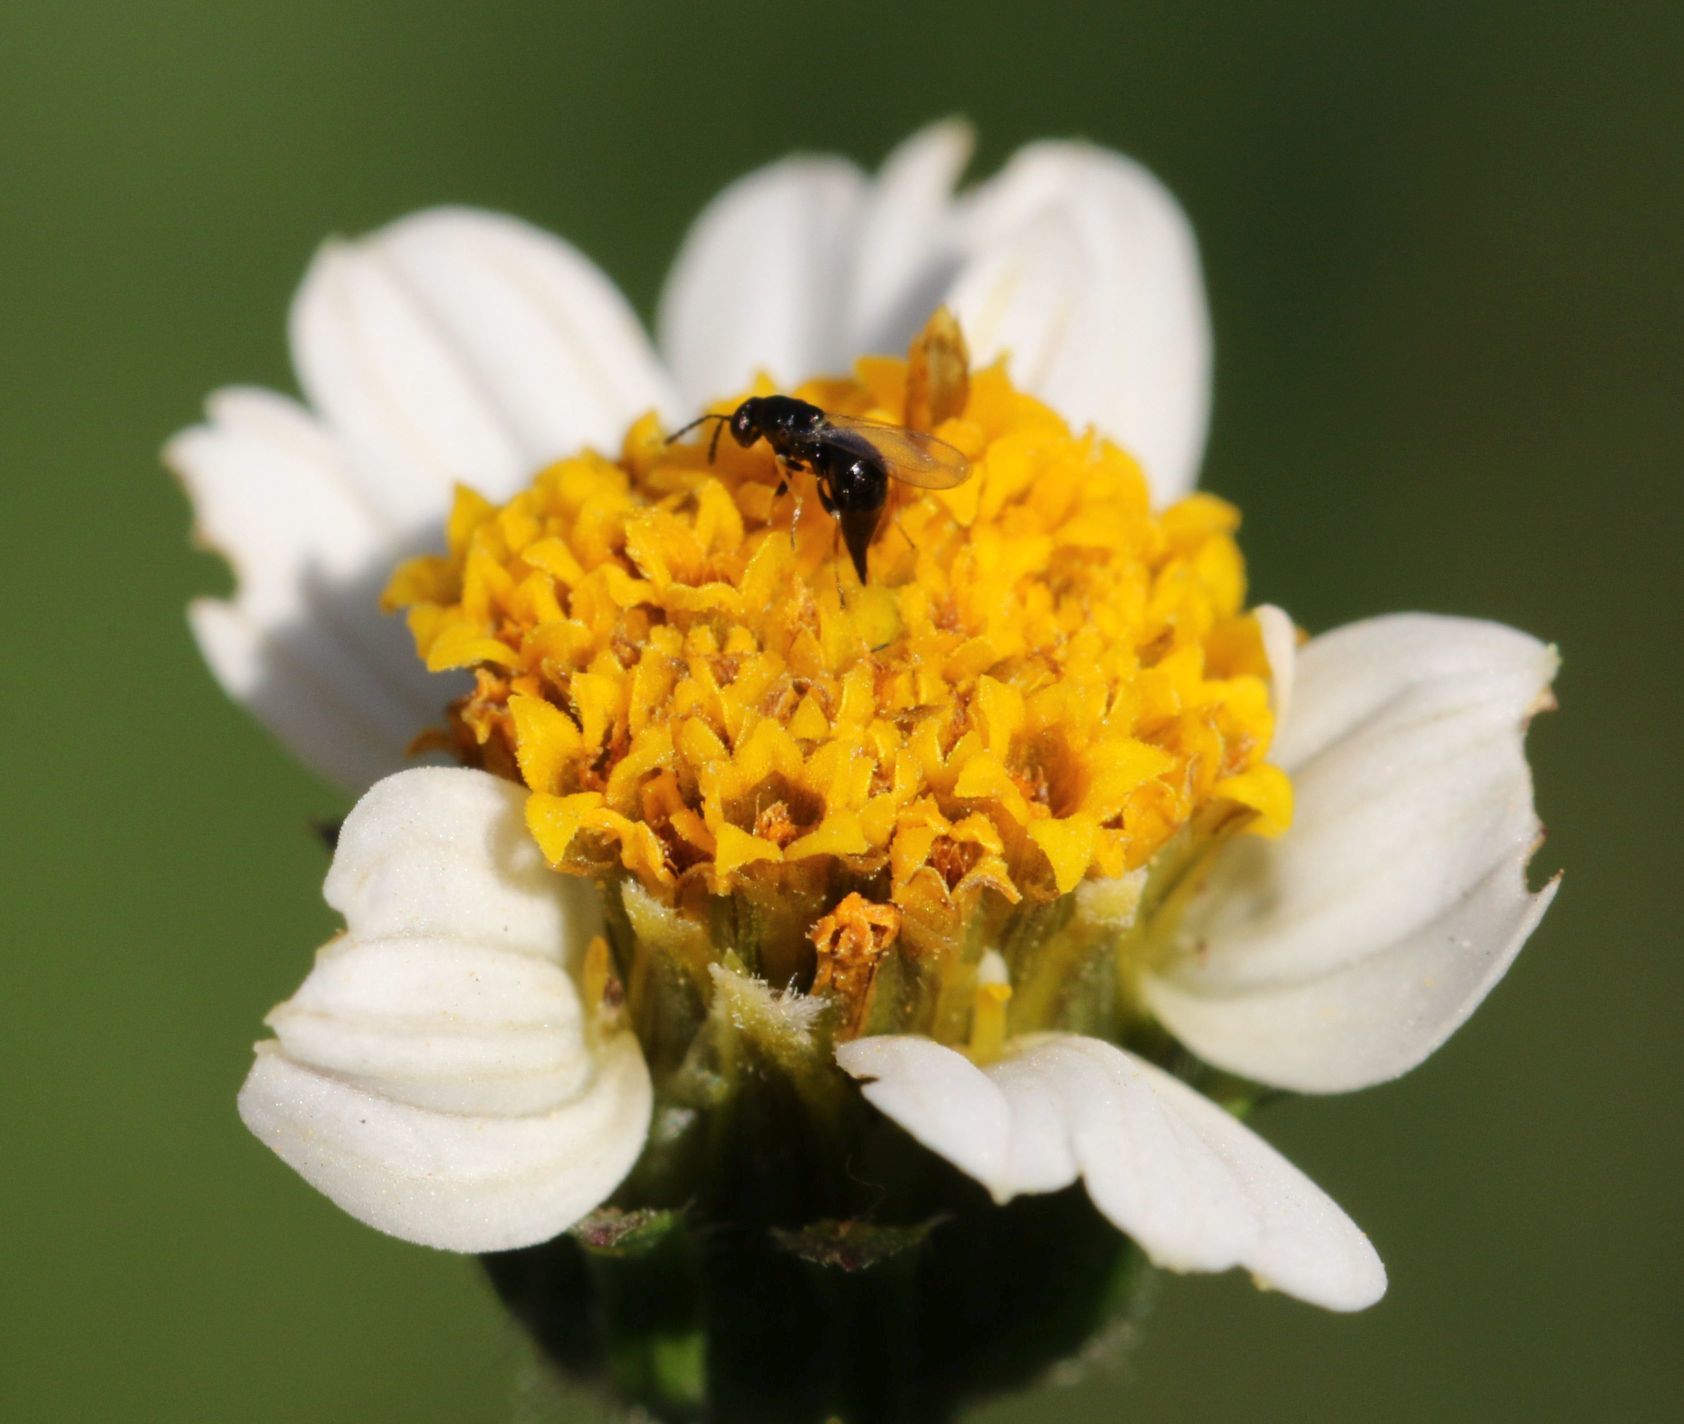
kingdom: Plantae
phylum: Tracheophyta
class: Magnoliopsida
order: Asterales
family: Asteraceae
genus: Bidens
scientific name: Bidens pilosa
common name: Black-jack
